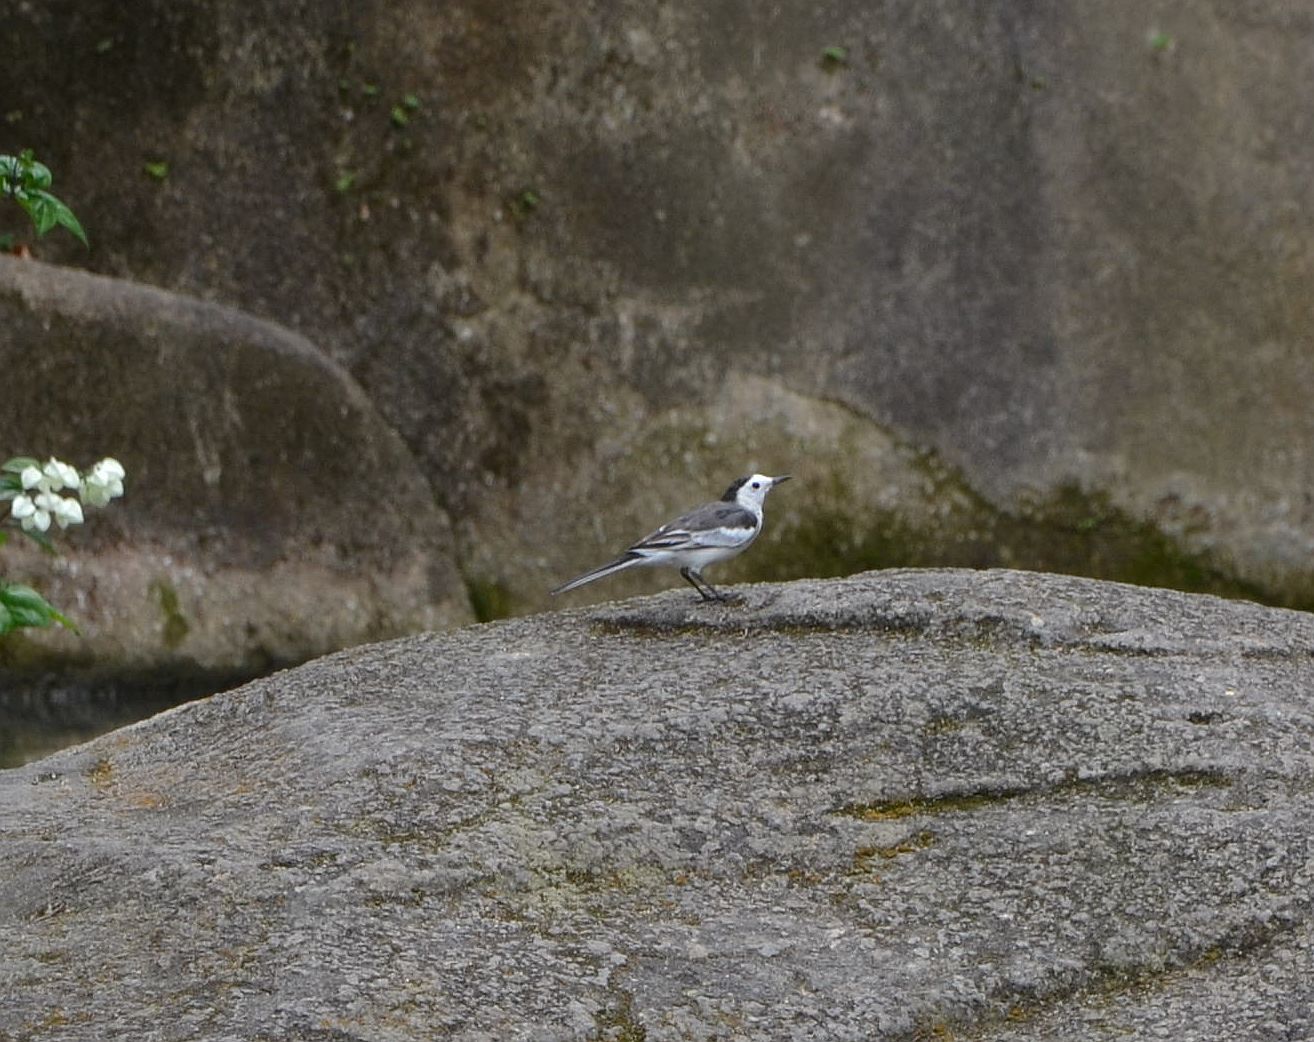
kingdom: Animalia
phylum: Chordata
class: Aves
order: Passeriformes
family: Motacillidae
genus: Motacilla
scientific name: Motacilla alba
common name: White wagtail
